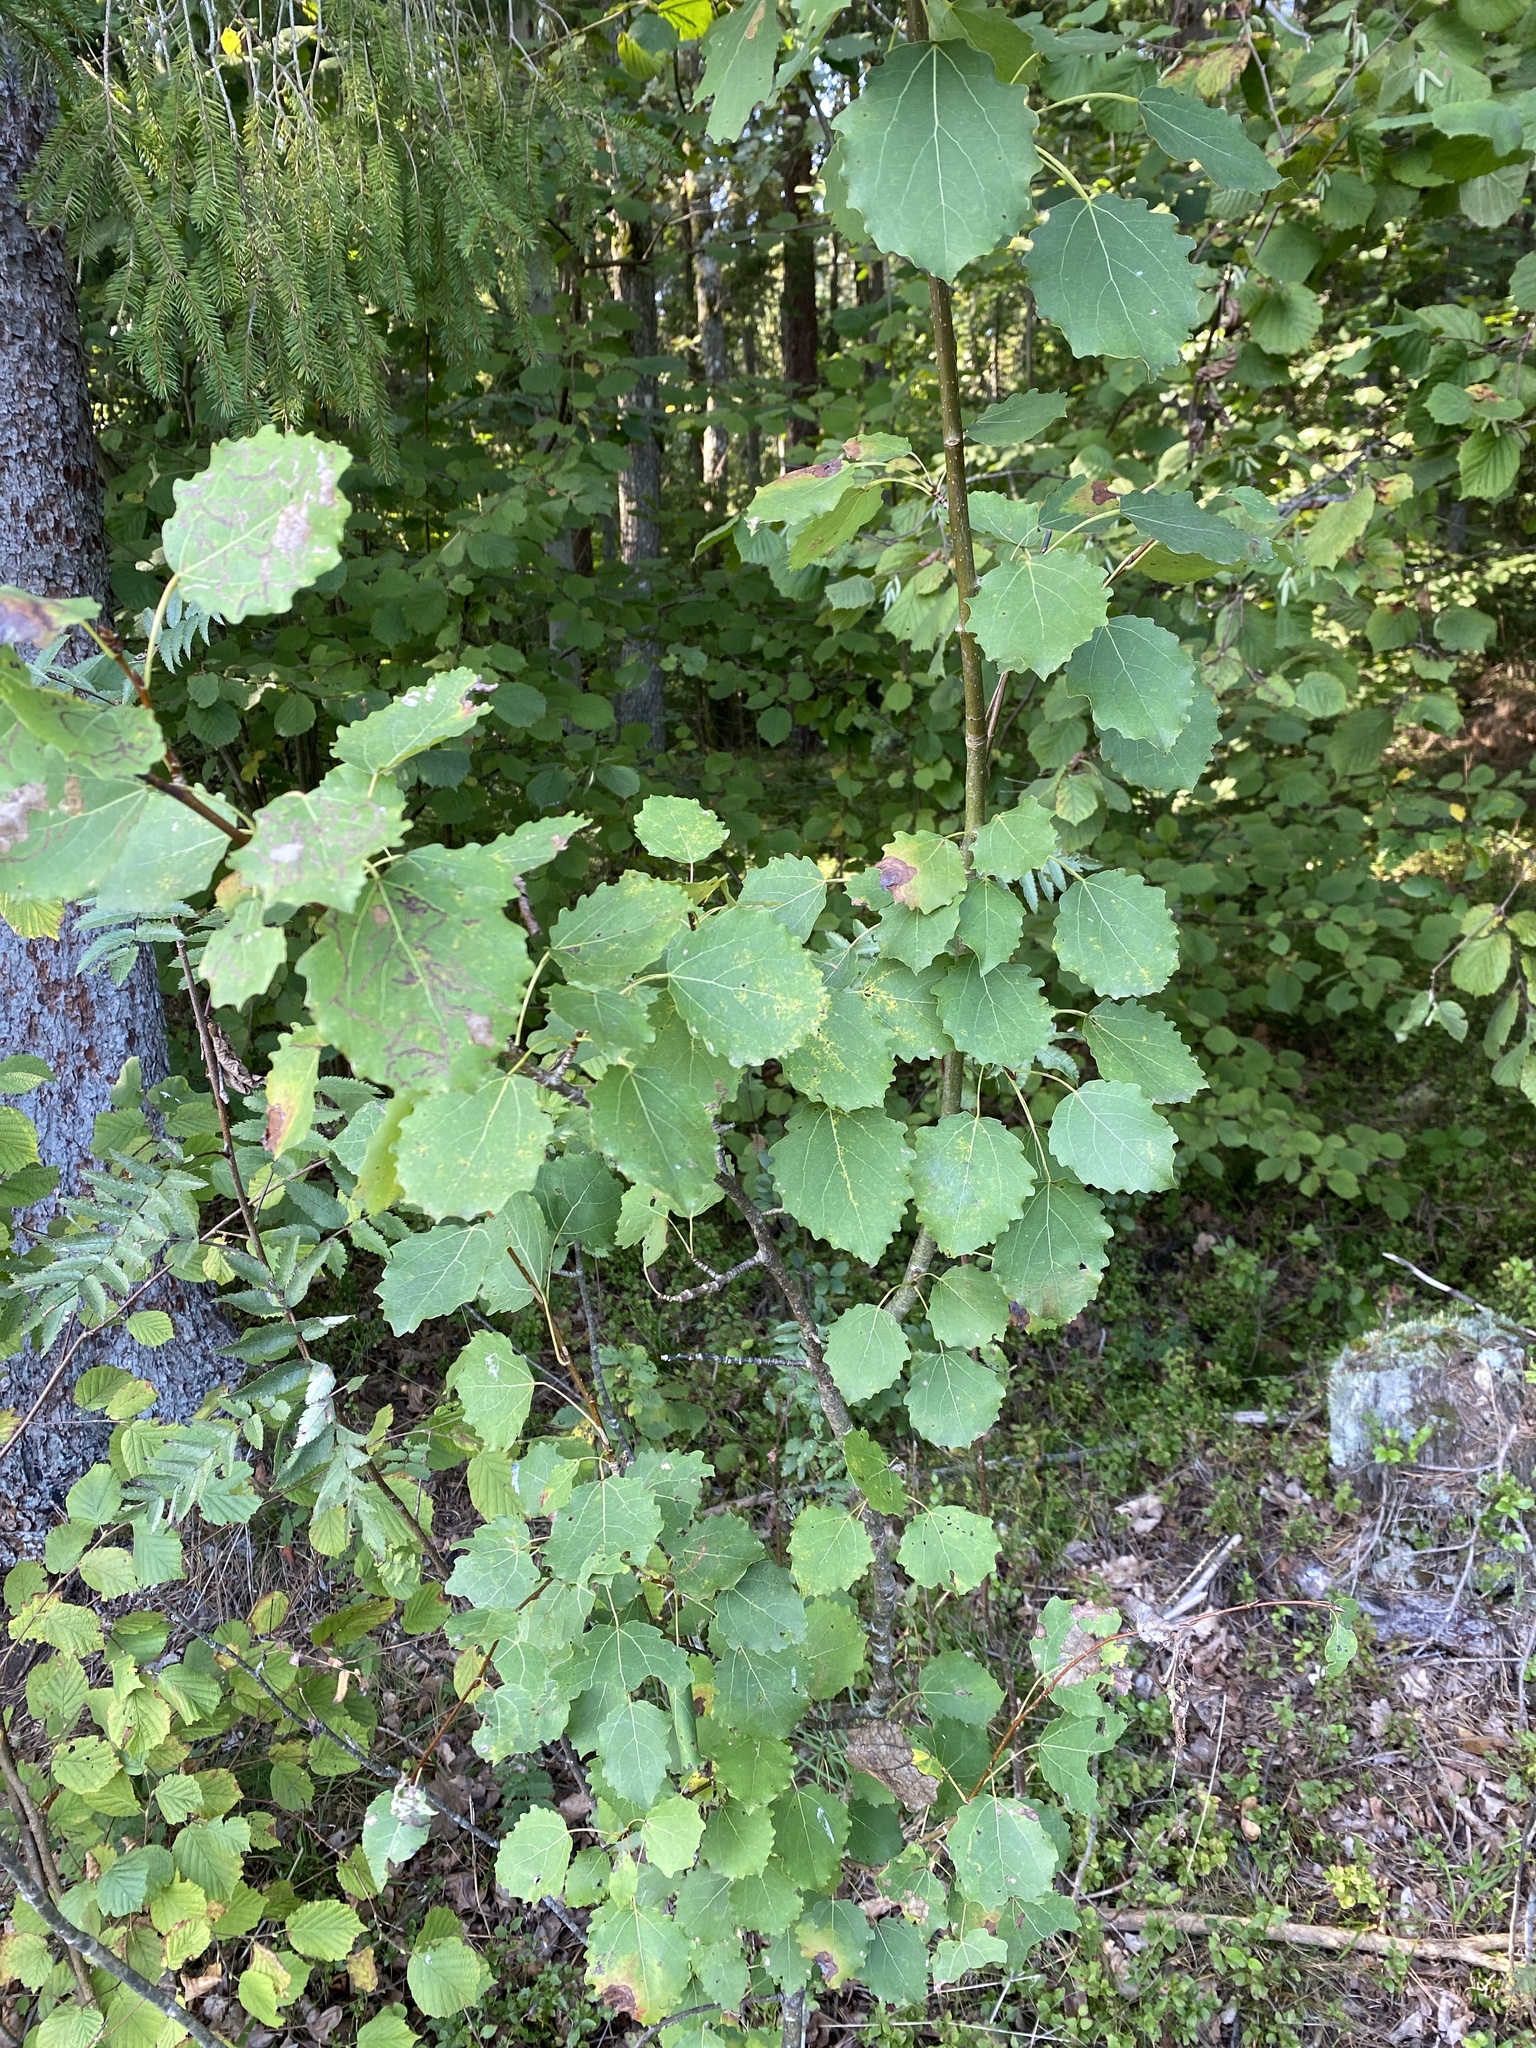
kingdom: Plantae
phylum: Tracheophyta
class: Magnoliopsida
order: Malpighiales
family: Salicaceae
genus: Populus
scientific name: Populus tremula
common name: European aspen
